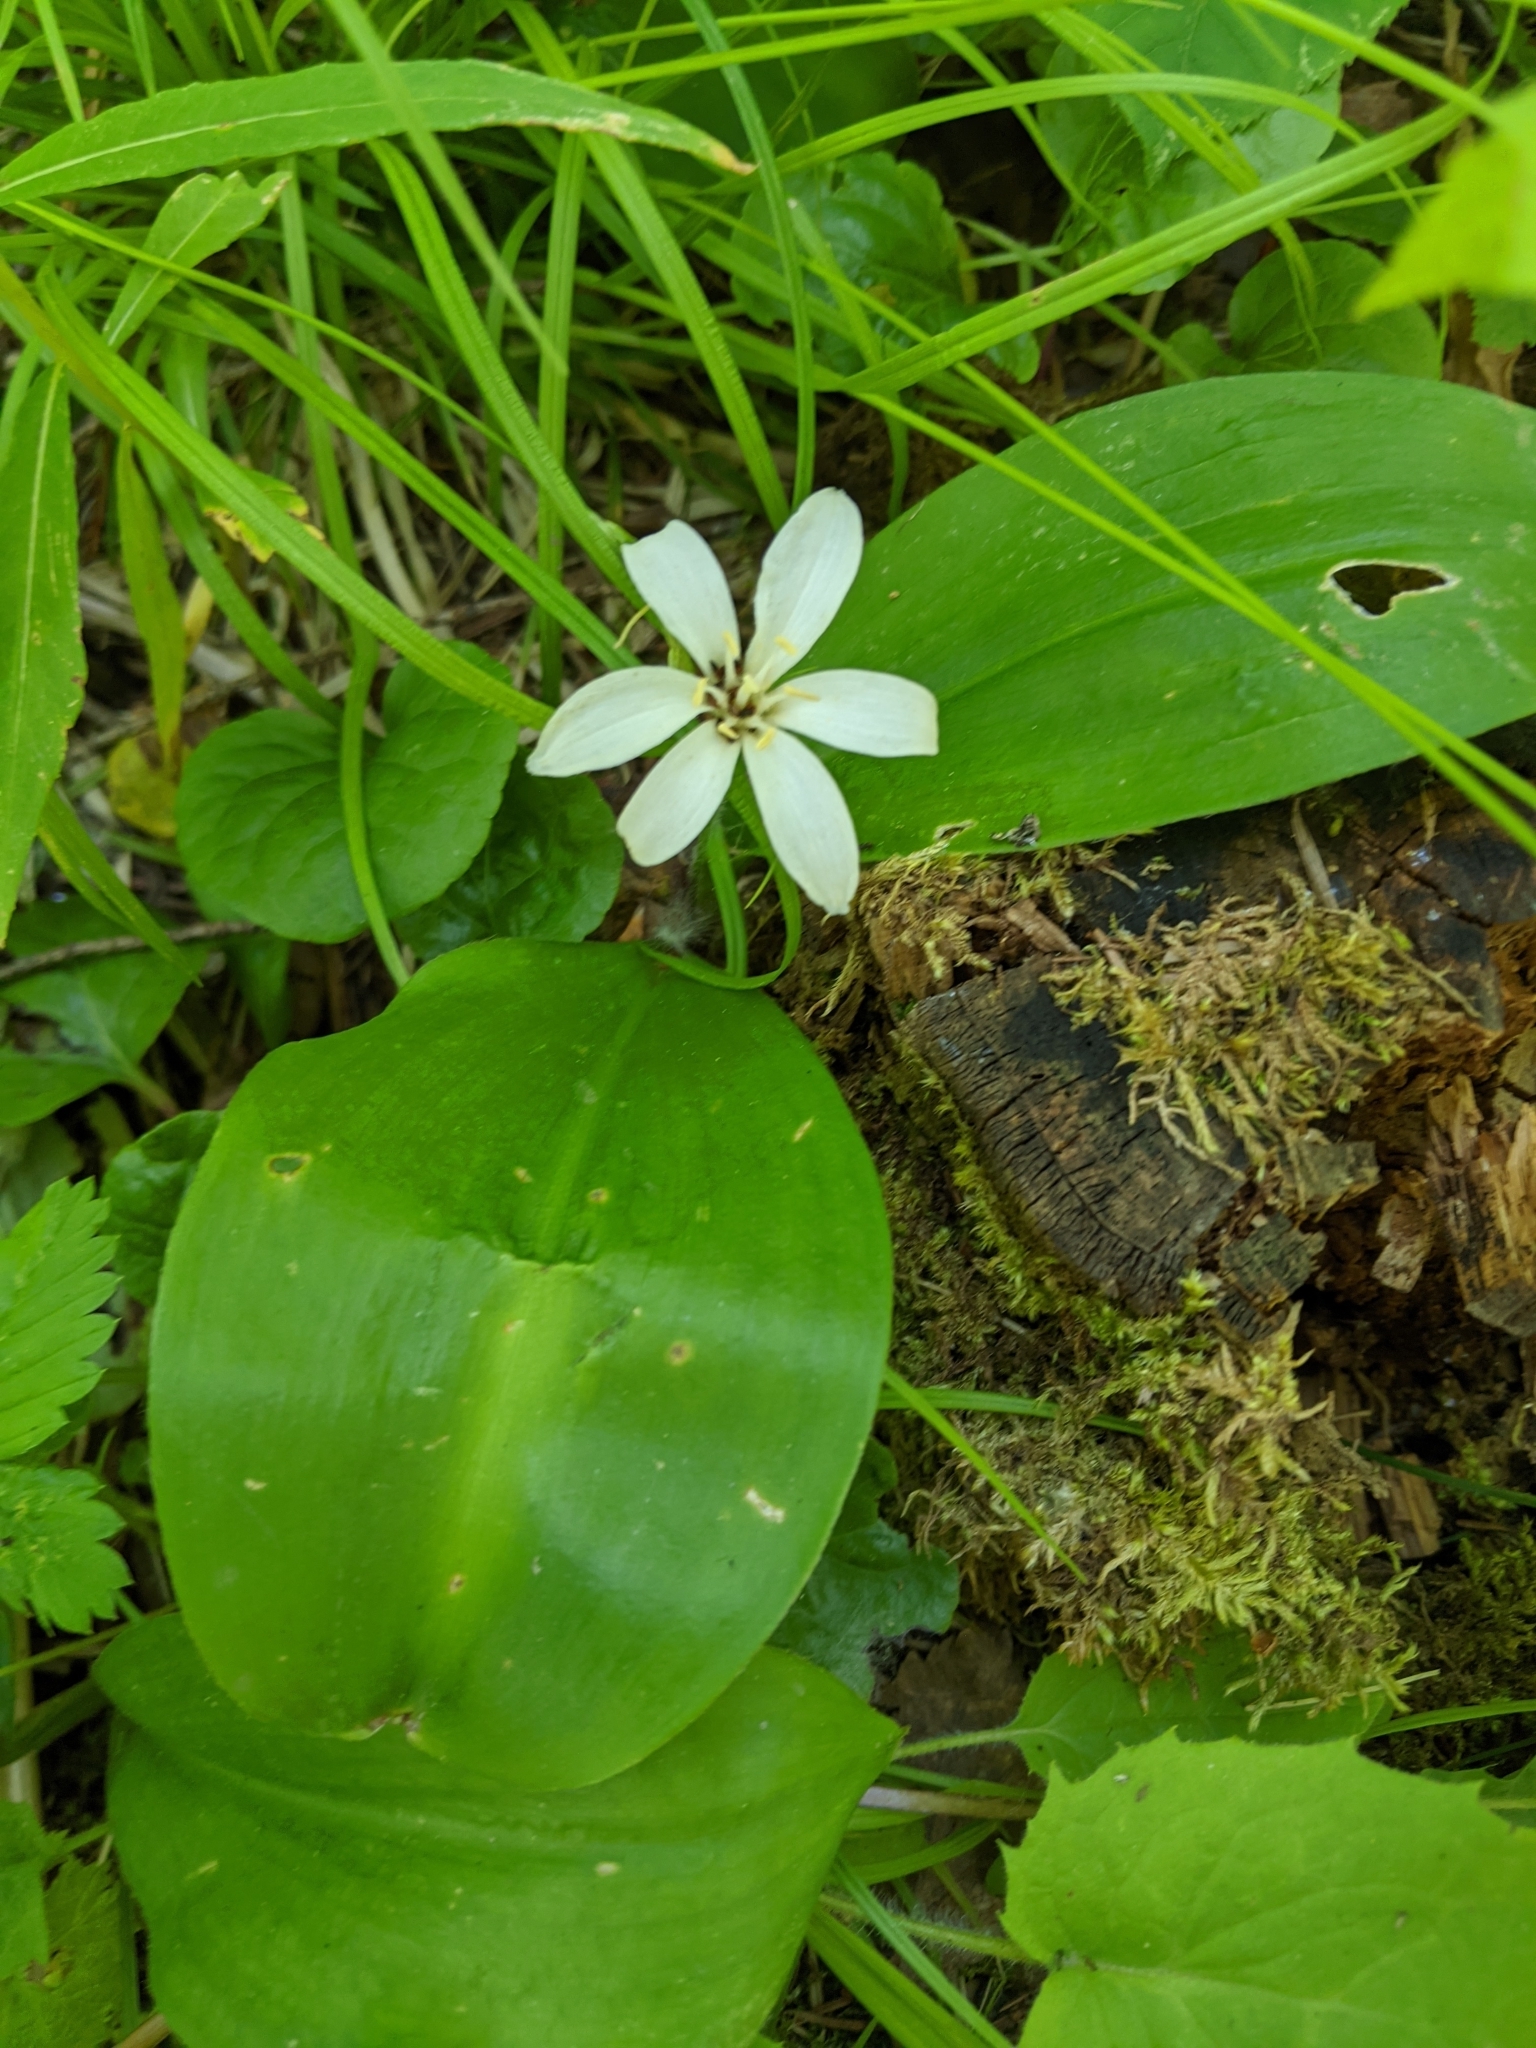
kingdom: Plantae
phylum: Tracheophyta
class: Liliopsida
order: Liliales
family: Liliaceae
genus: Clintonia
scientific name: Clintonia uniflora
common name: Queen's cup
